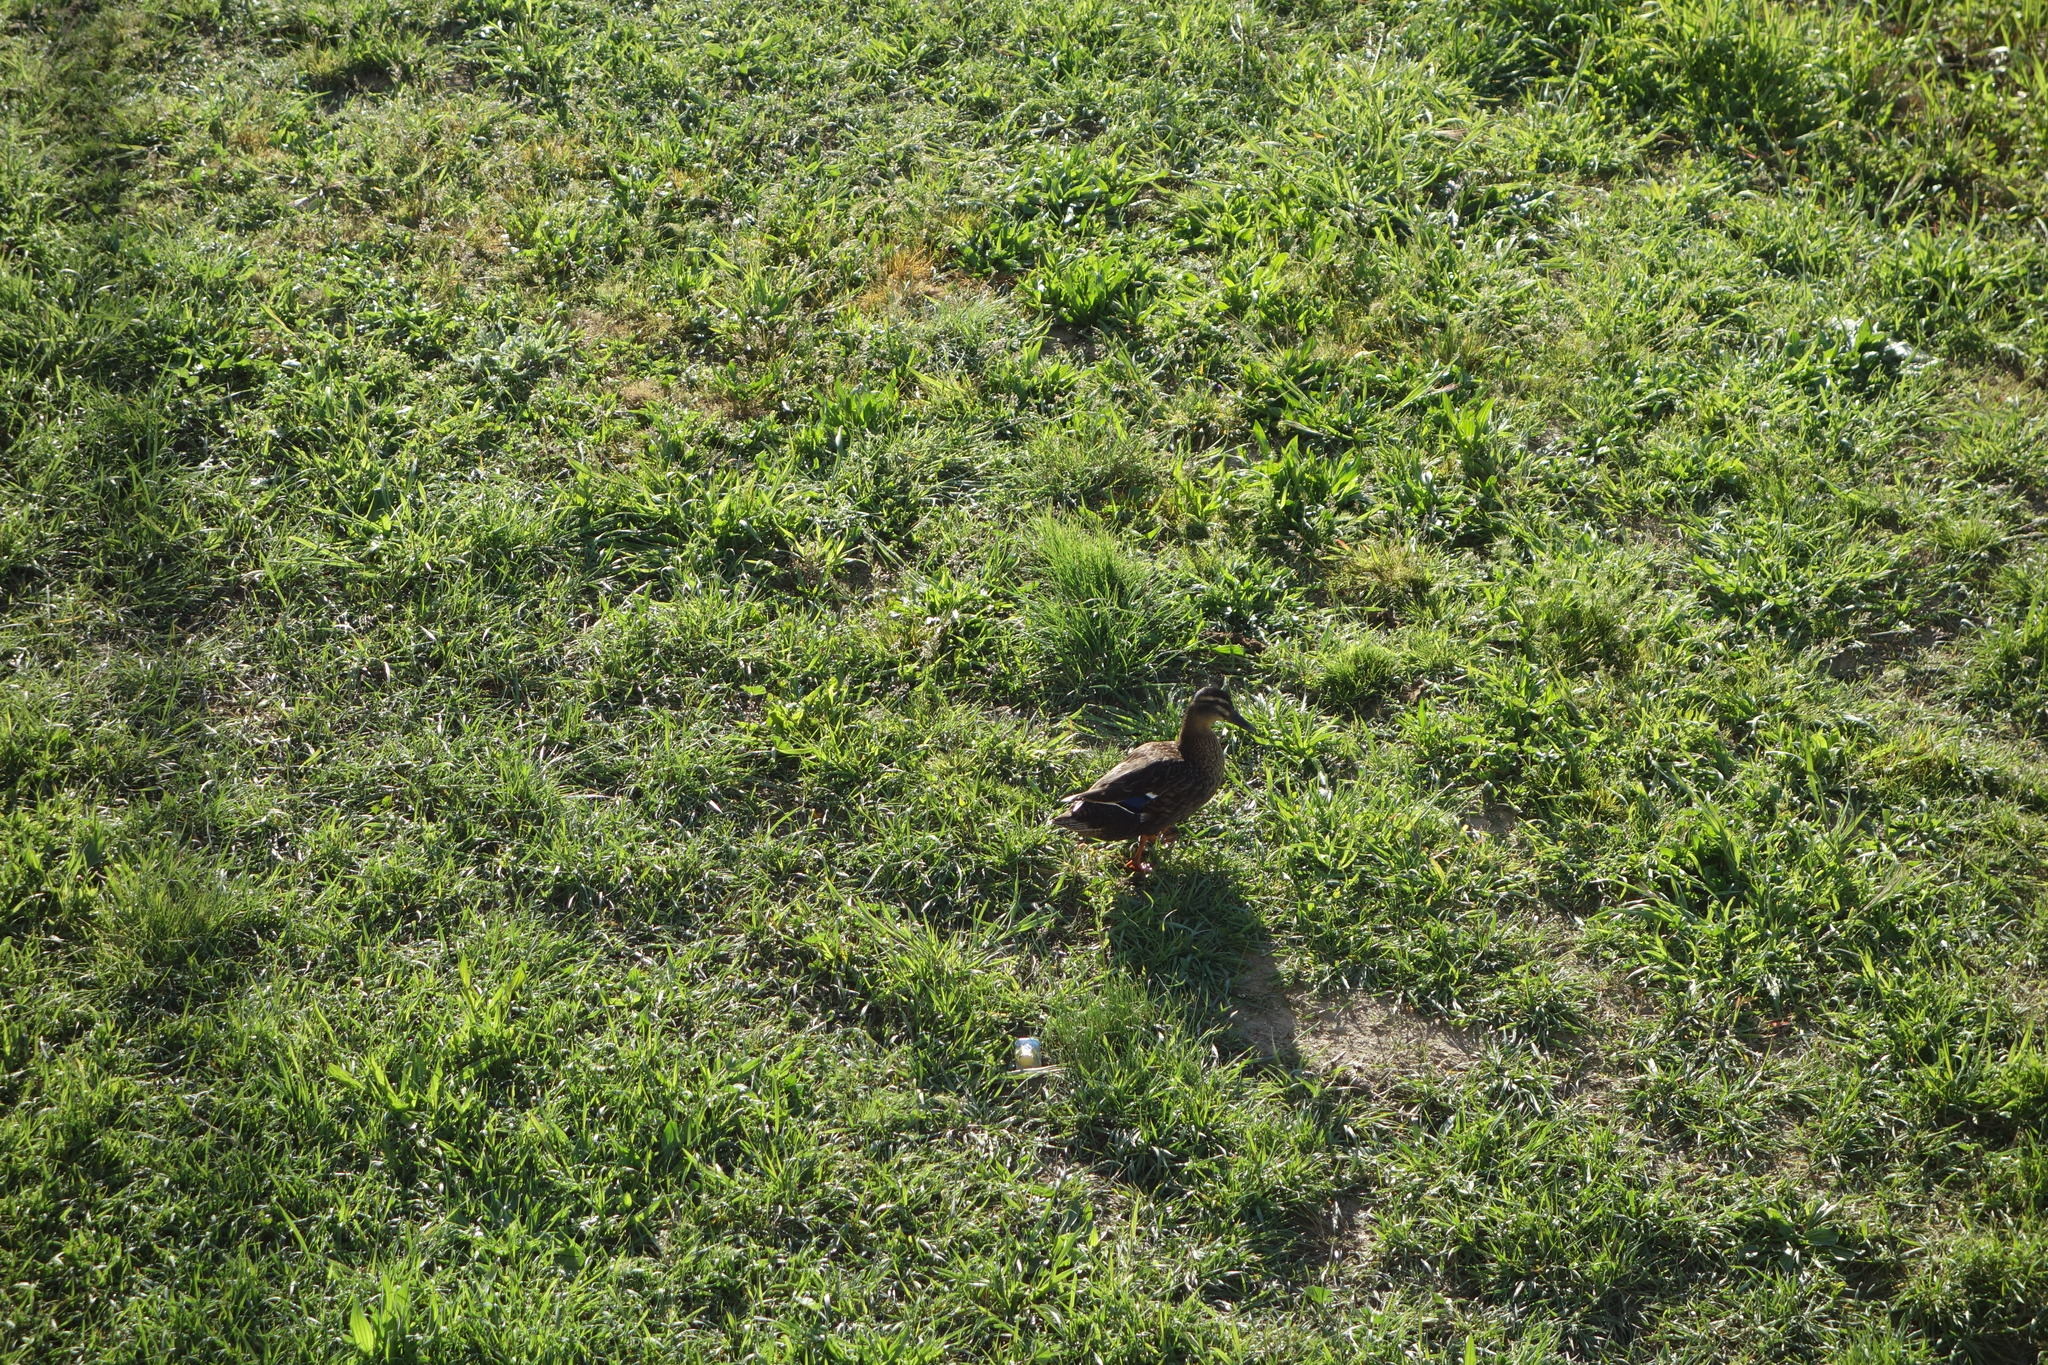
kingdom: Animalia
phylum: Chordata
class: Aves
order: Anseriformes
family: Anatidae
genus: Anas
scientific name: Anas platyrhynchos
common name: Mallard
